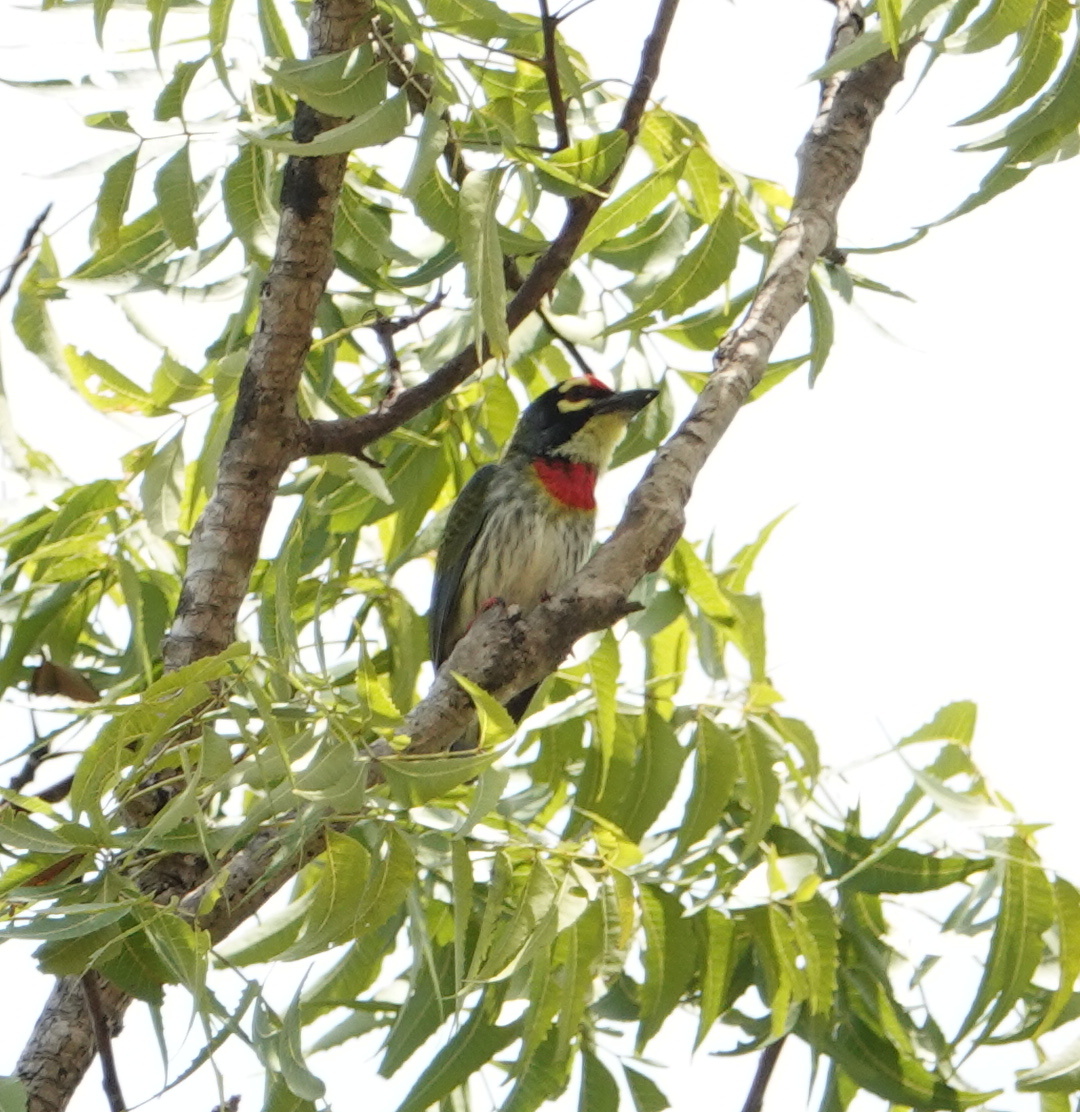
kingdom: Animalia
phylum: Chordata
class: Aves
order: Piciformes
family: Megalaimidae
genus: Psilopogon
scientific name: Psilopogon haemacephalus
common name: Coppersmith barbet
